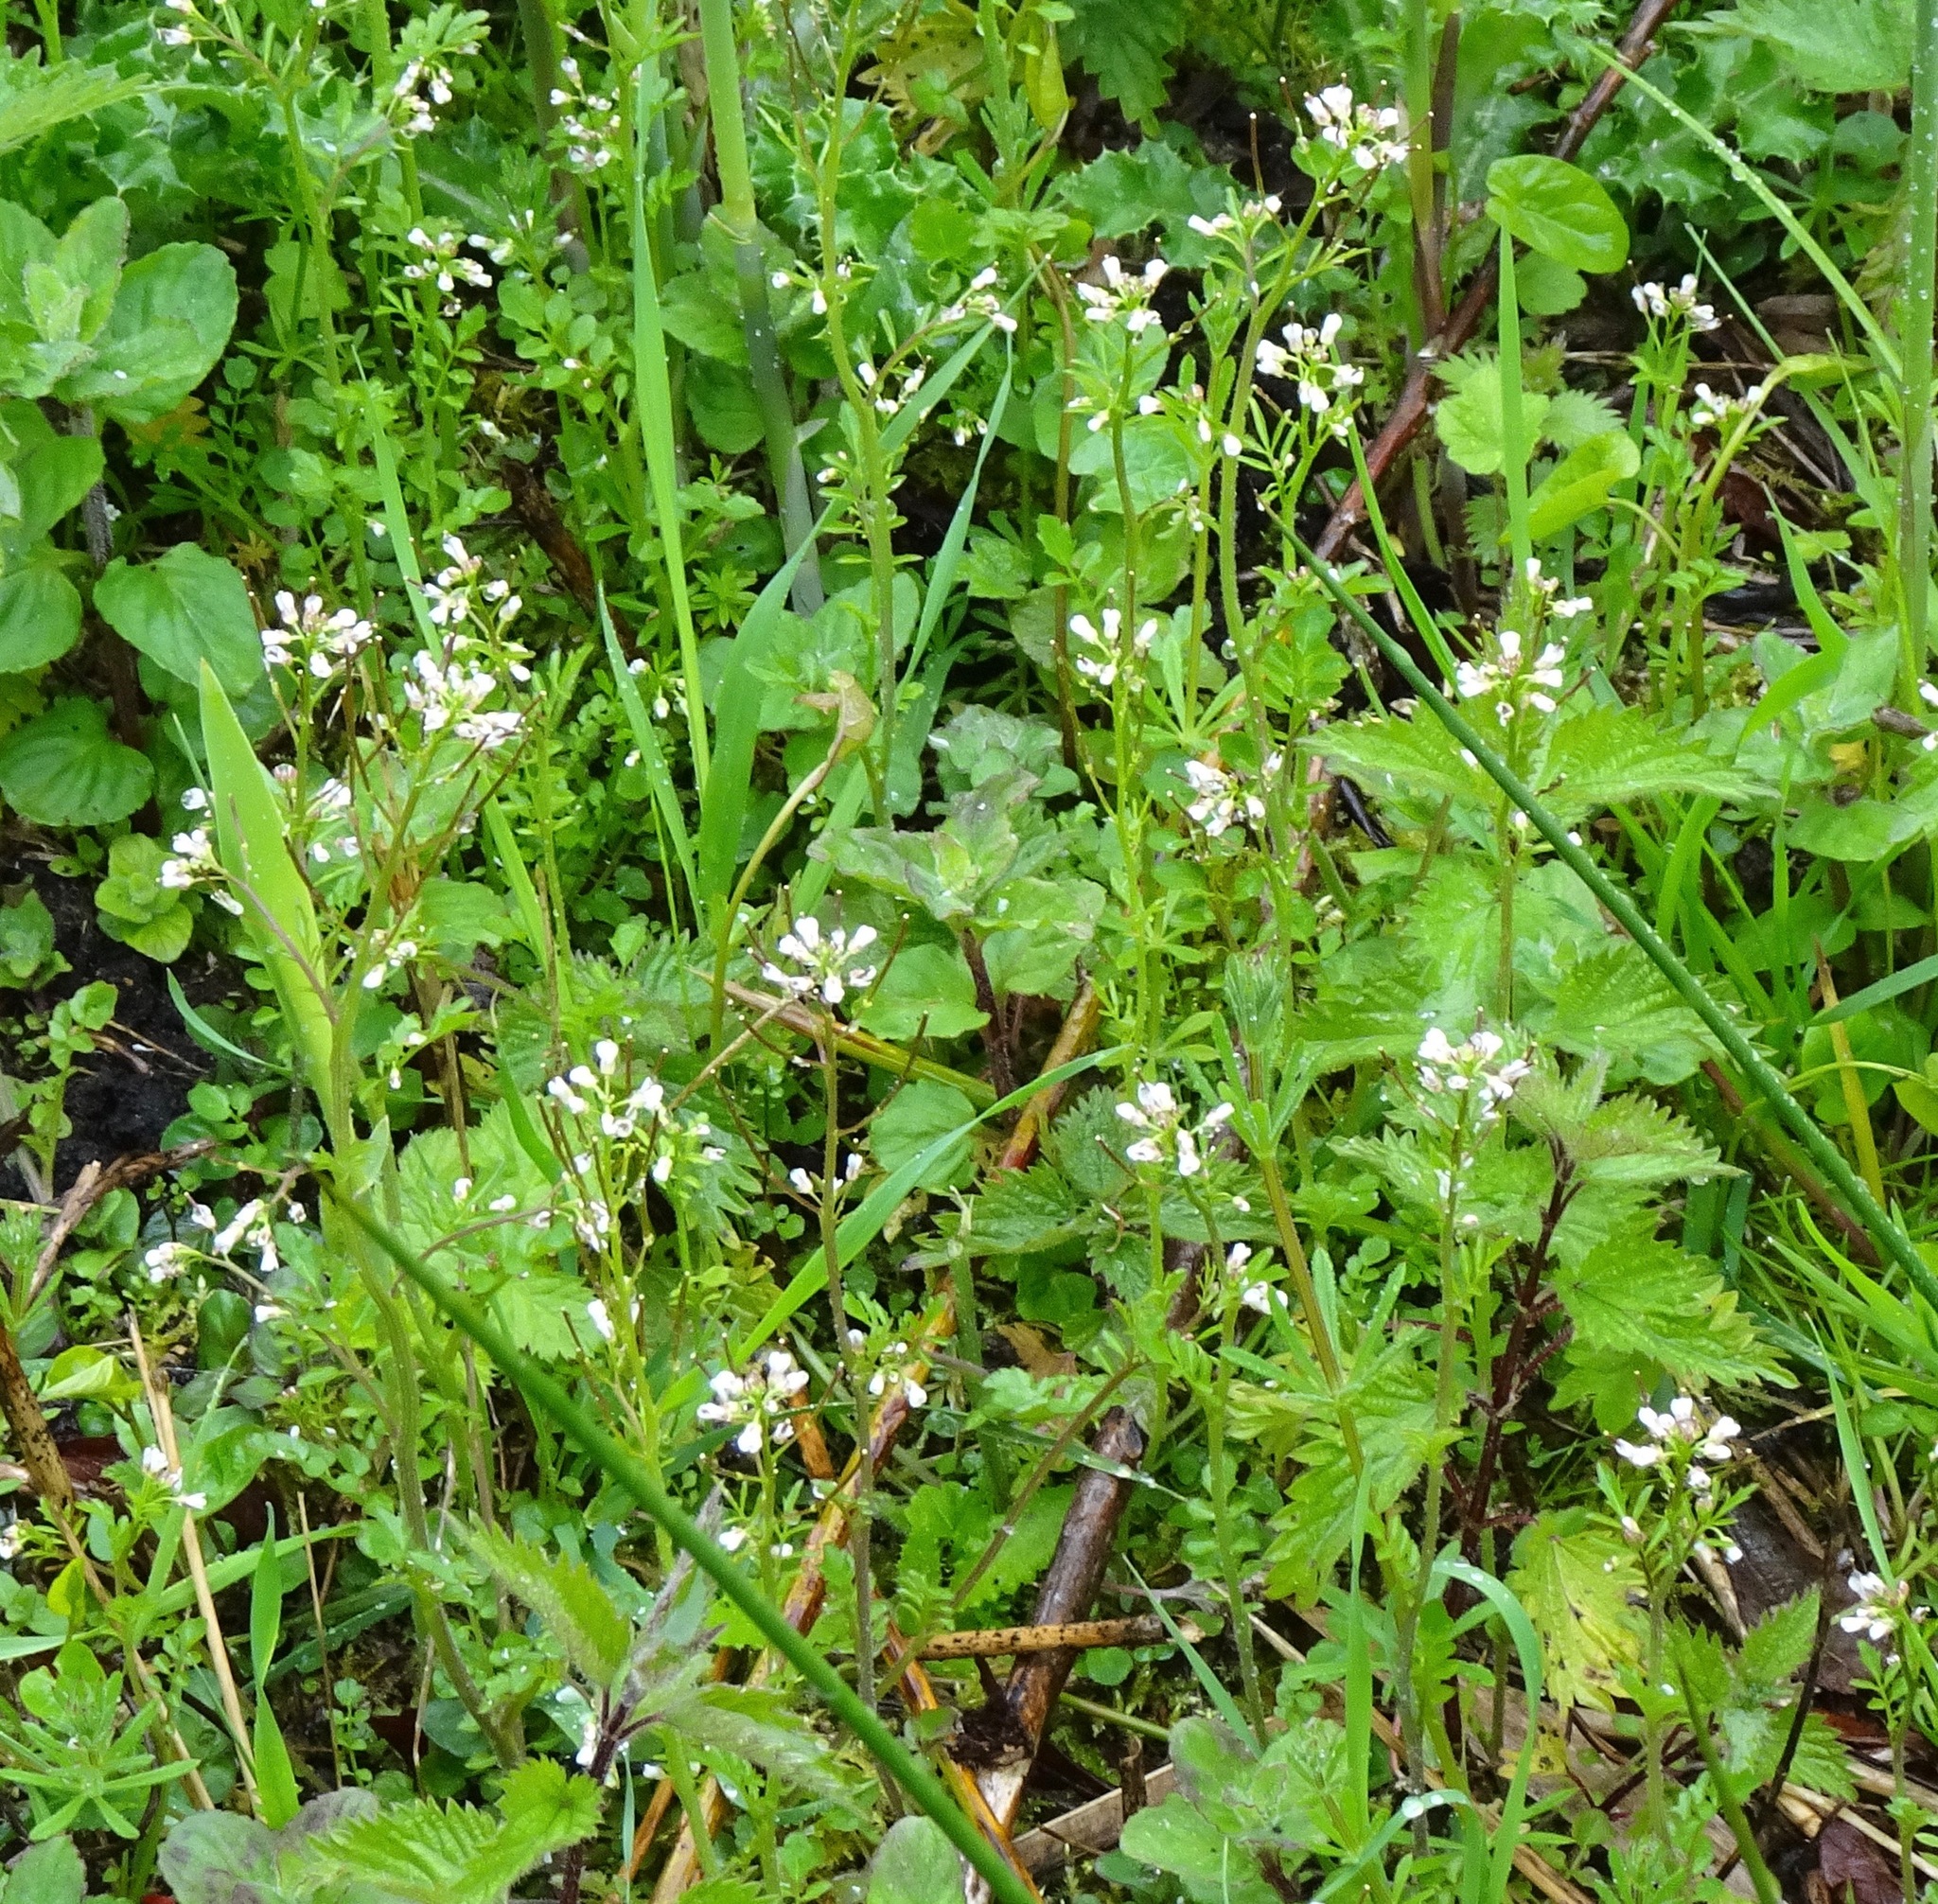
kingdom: Plantae
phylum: Tracheophyta
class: Magnoliopsida
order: Brassicales
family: Brassicaceae
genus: Cardamine
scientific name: Cardamine flexuosa
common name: Woodland bittercress
